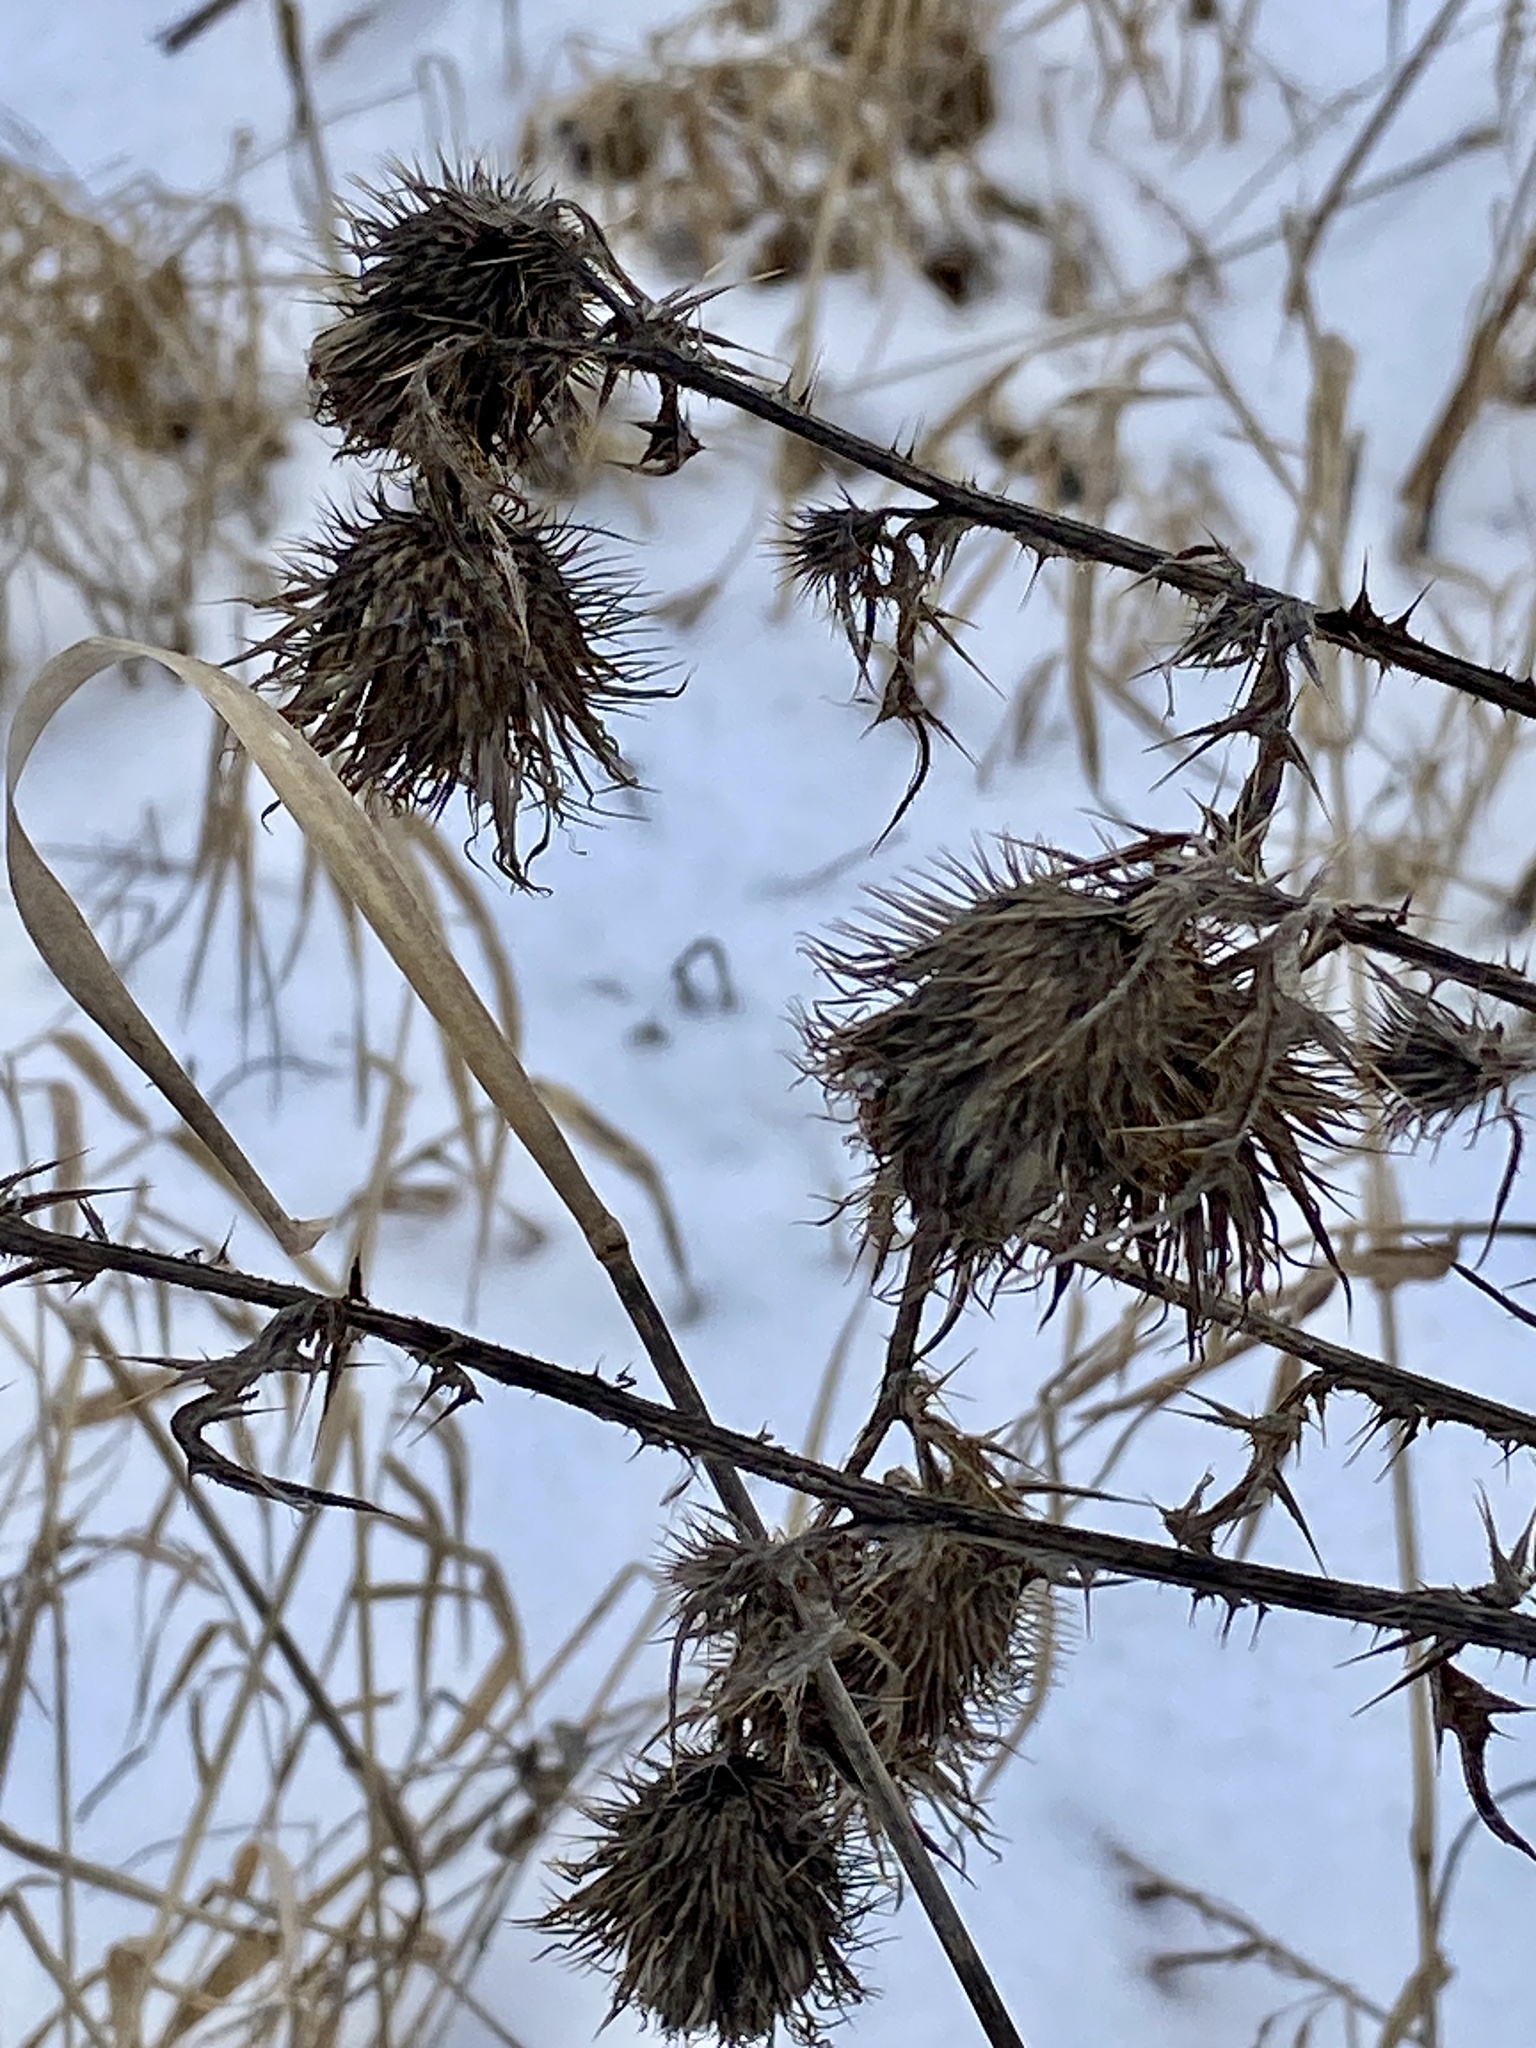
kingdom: Plantae
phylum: Tracheophyta
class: Magnoliopsida
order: Asterales
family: Asteraceae
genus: Cirsium
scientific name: Cirsium vulgare
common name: Bull thistle
